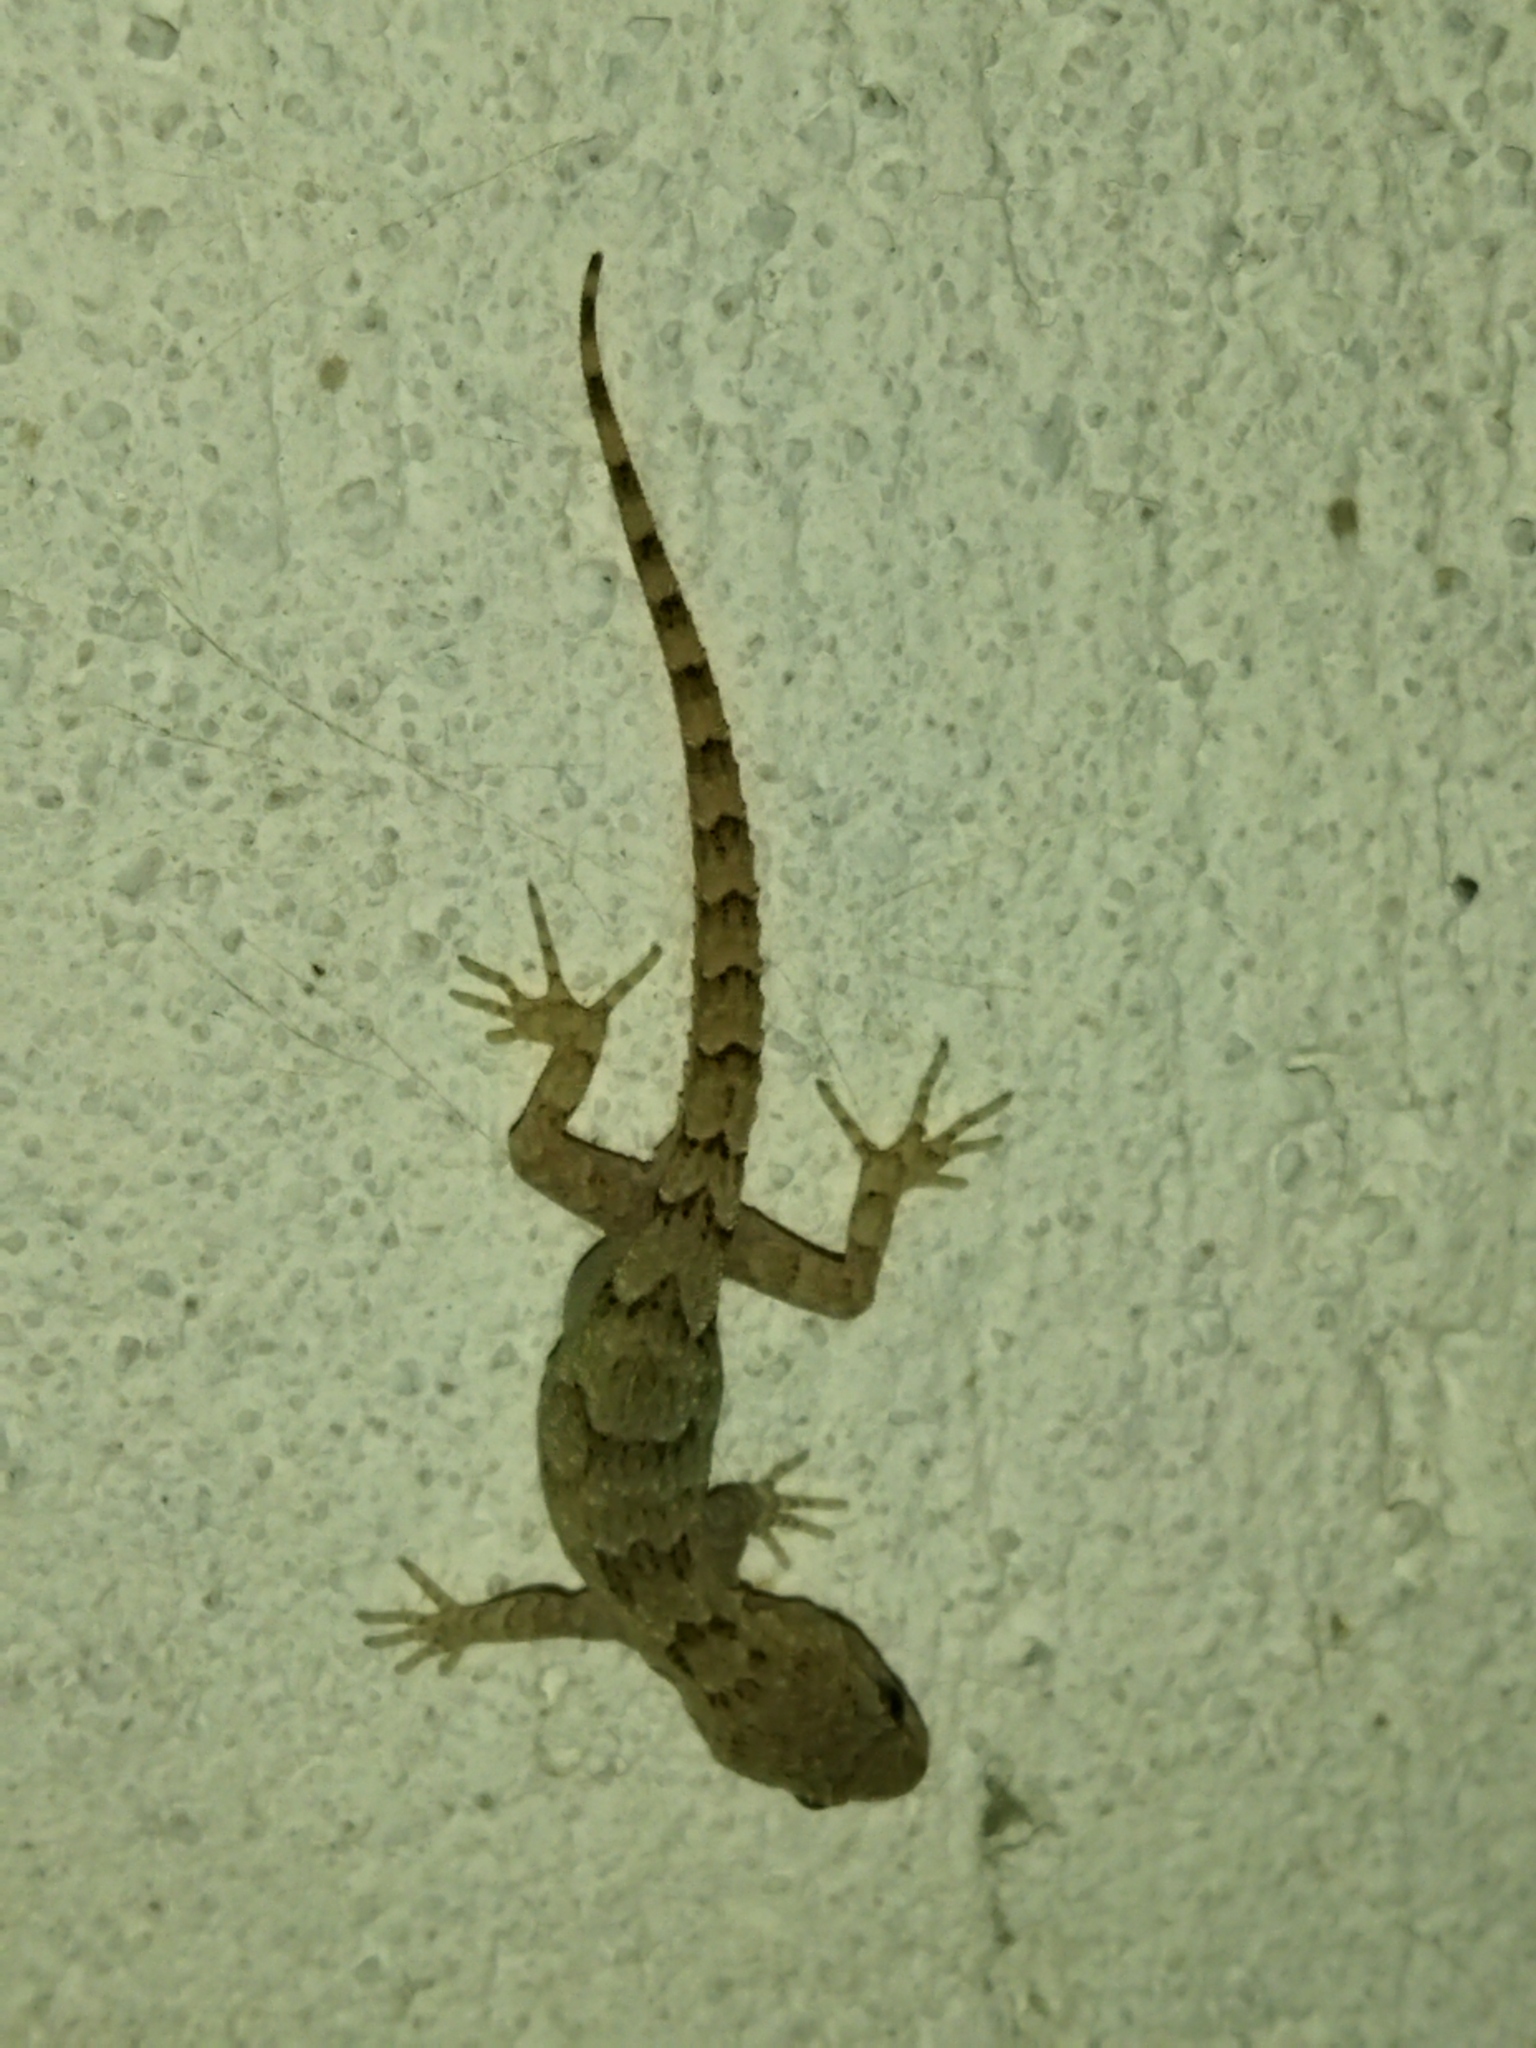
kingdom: Animalia
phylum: Chordata
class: Squamata
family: Gekkonidae
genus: Mediodactylus
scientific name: Mediodactylus kotschyi
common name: Kotschy's gecko
